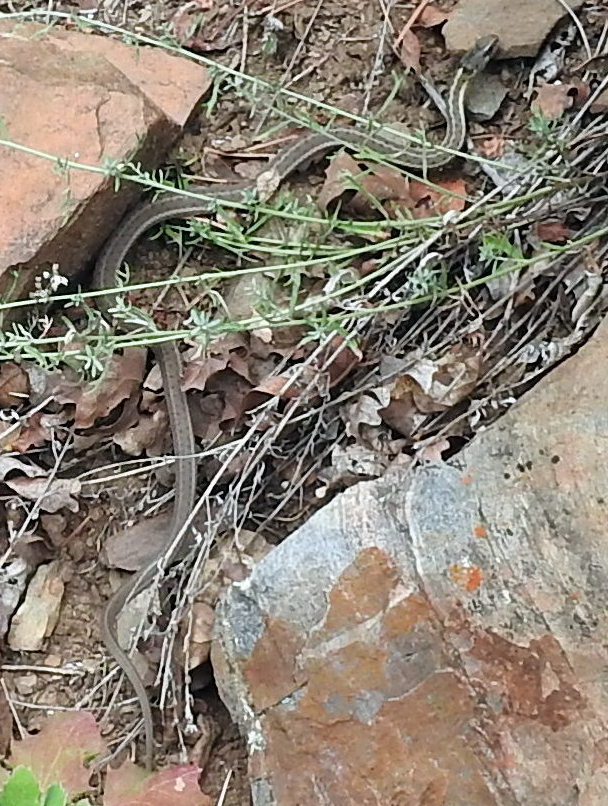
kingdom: Animalia
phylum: Chordata
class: Squamata
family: Colubridae
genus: Thamnophis
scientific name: Thamnophis elegans
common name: Western terrestrial garter snake
